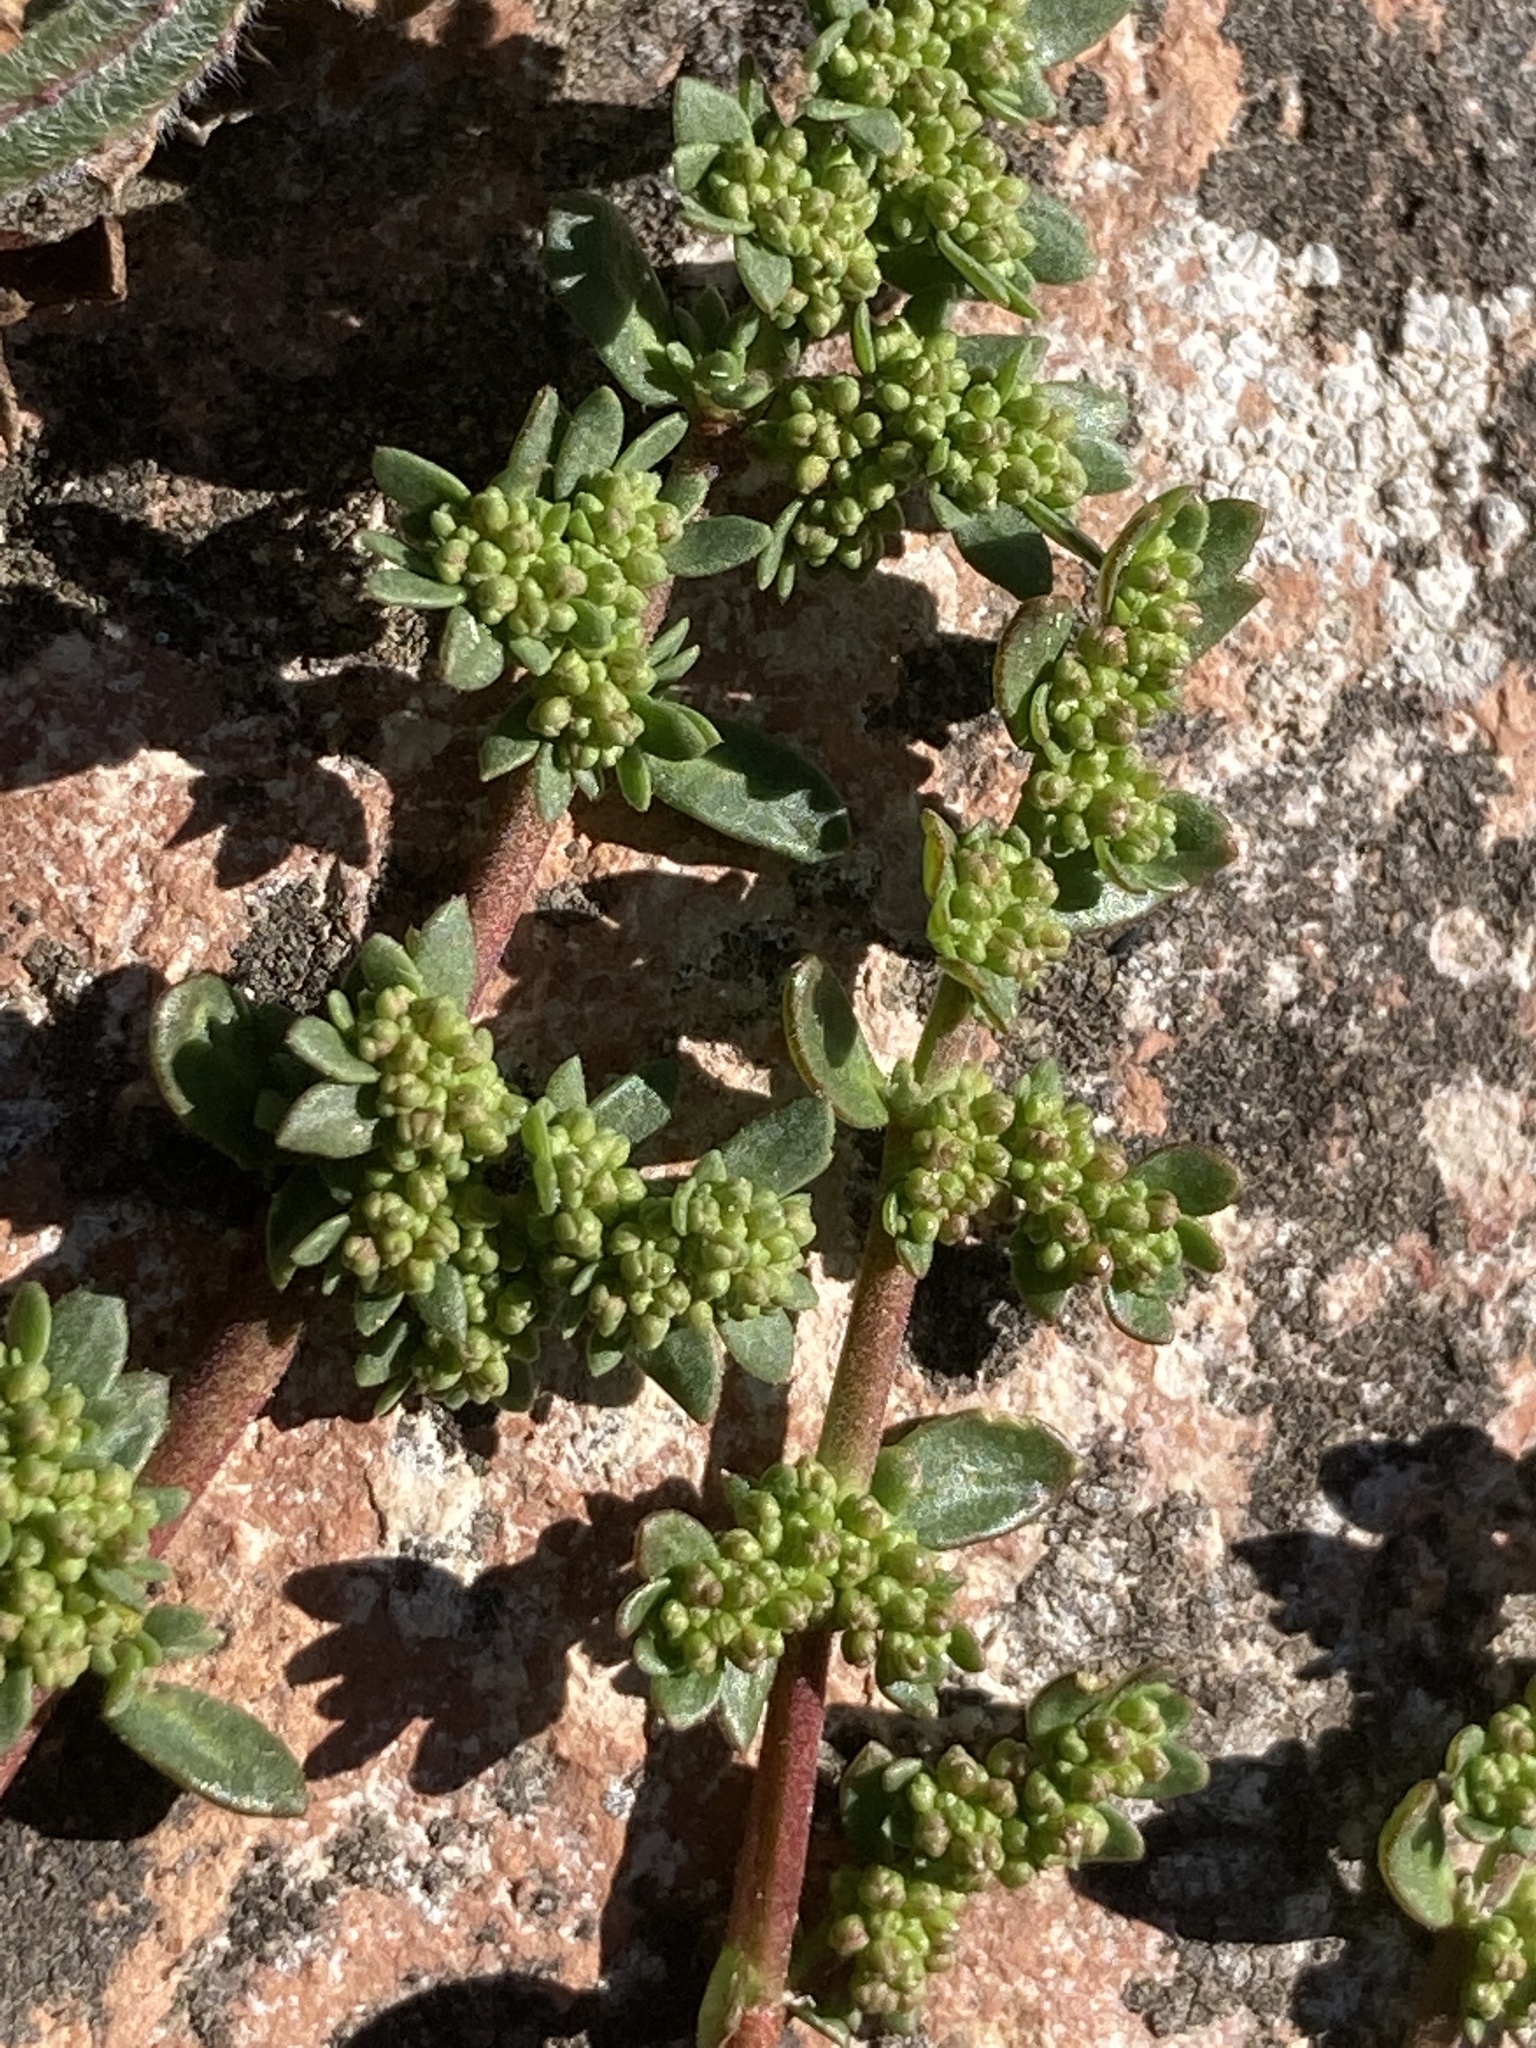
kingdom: Plantae
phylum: Tracheophyta
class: Magnoliopsida
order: Caryophyllales
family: Caryophyllaceae
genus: Herniaria
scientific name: Herniaria glabra
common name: Smooth rupturewort
